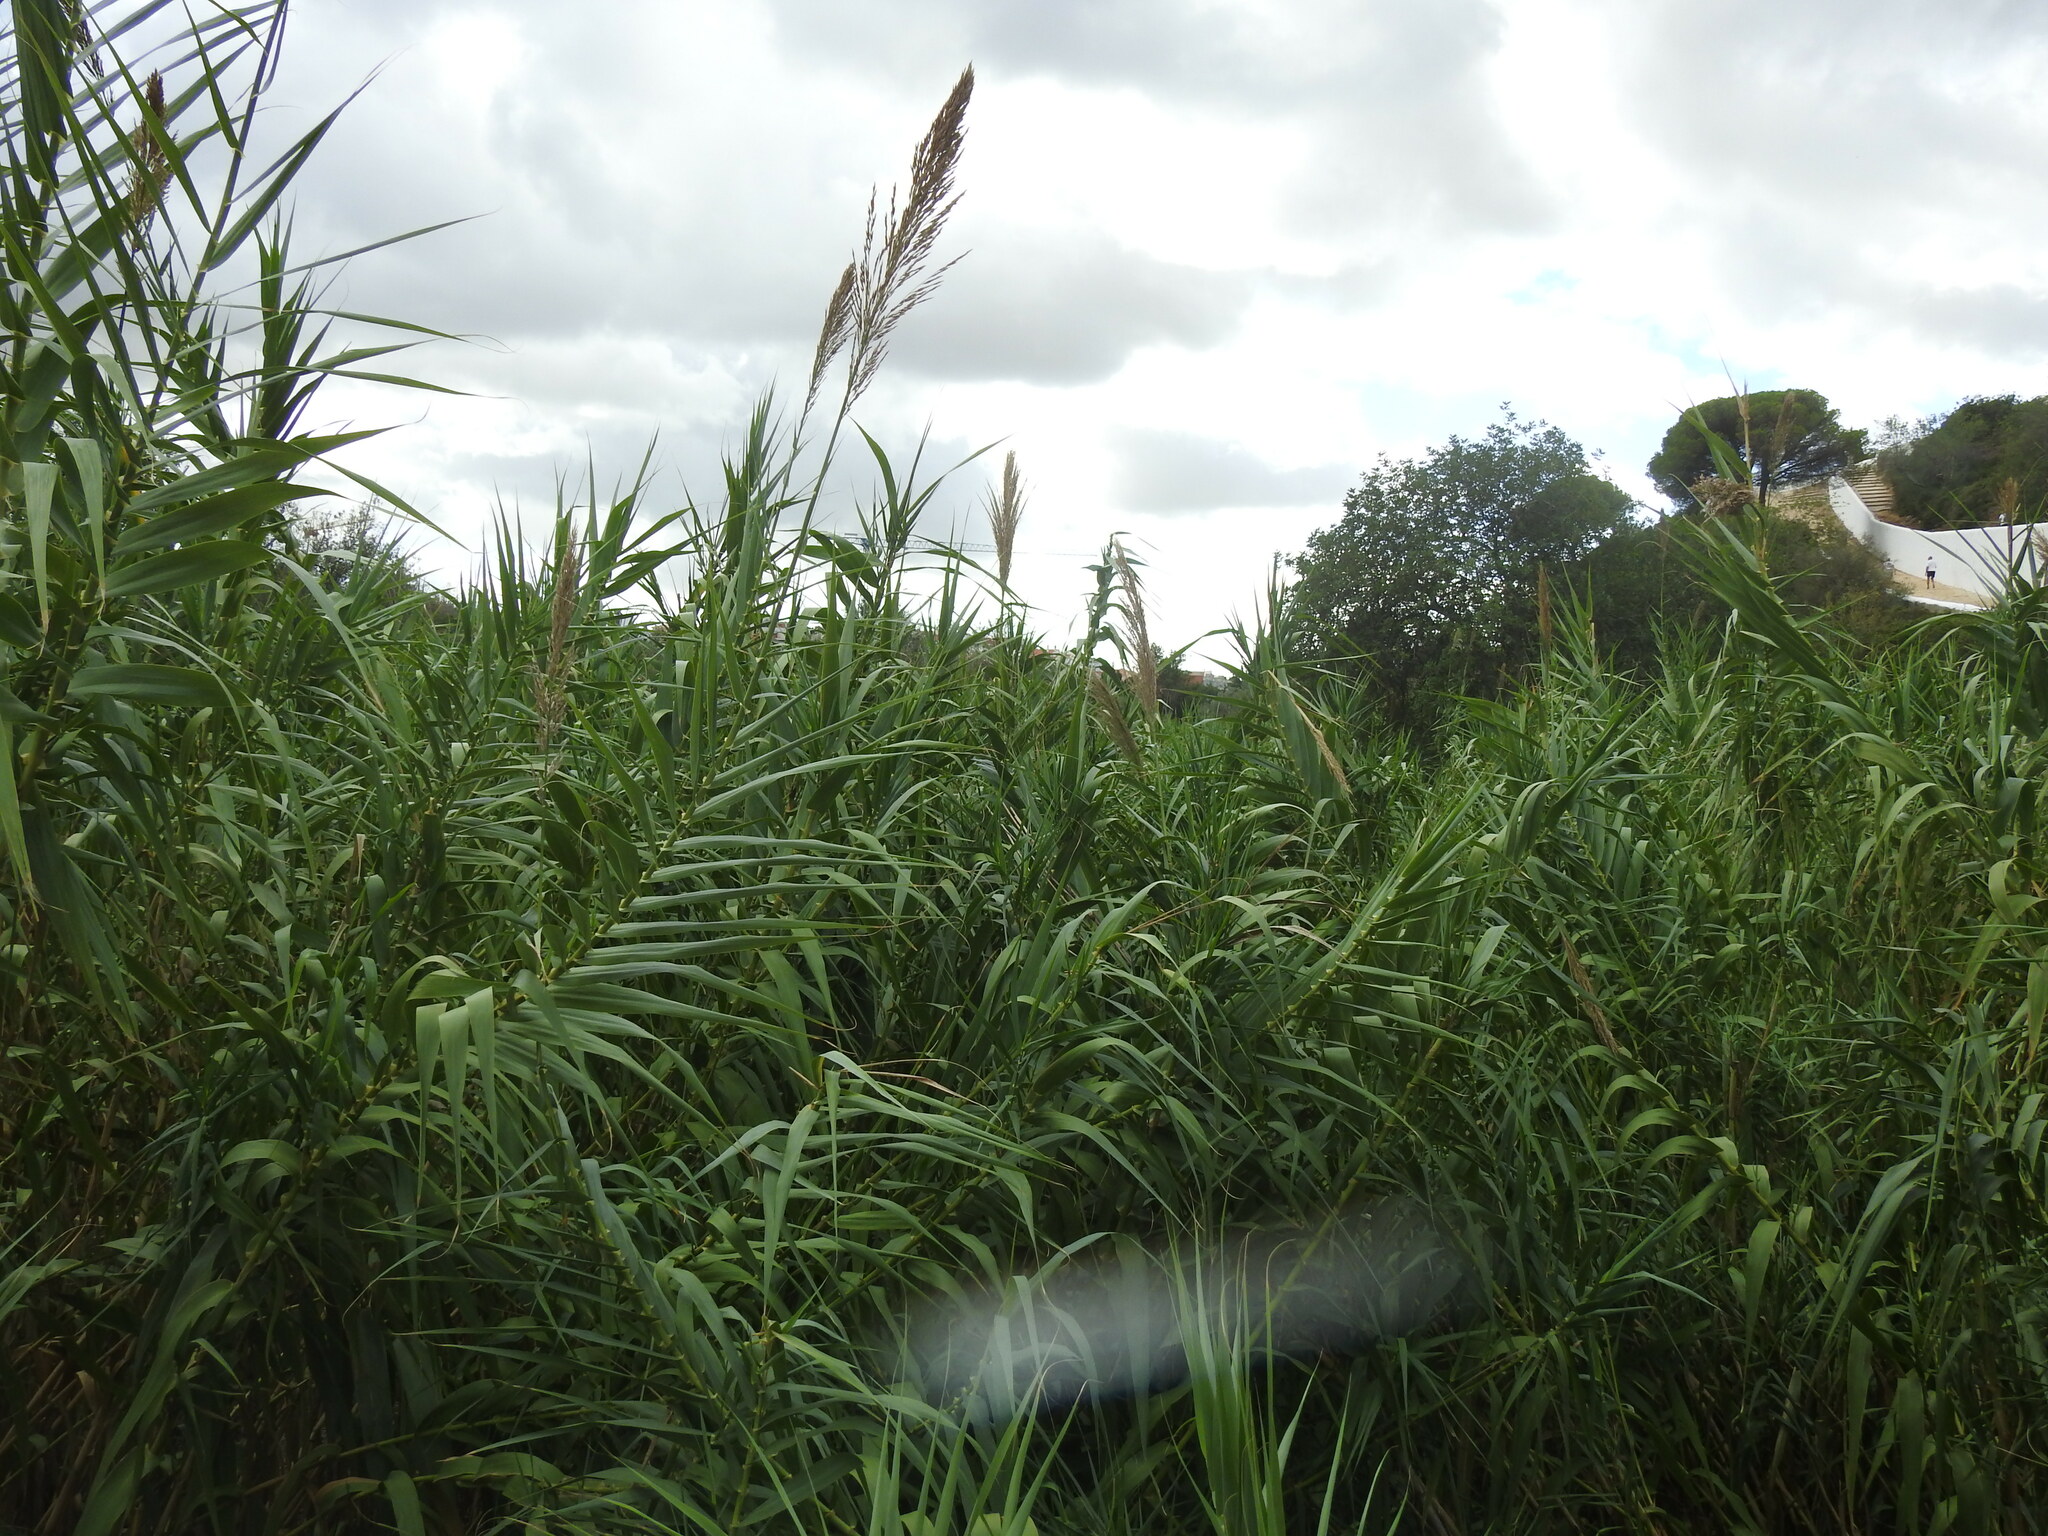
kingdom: Plantae
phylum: Tracheophyta
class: Liliopsida
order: Poales
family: Poaceae
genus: Arundo
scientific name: Arundo donax
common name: Giant reed
